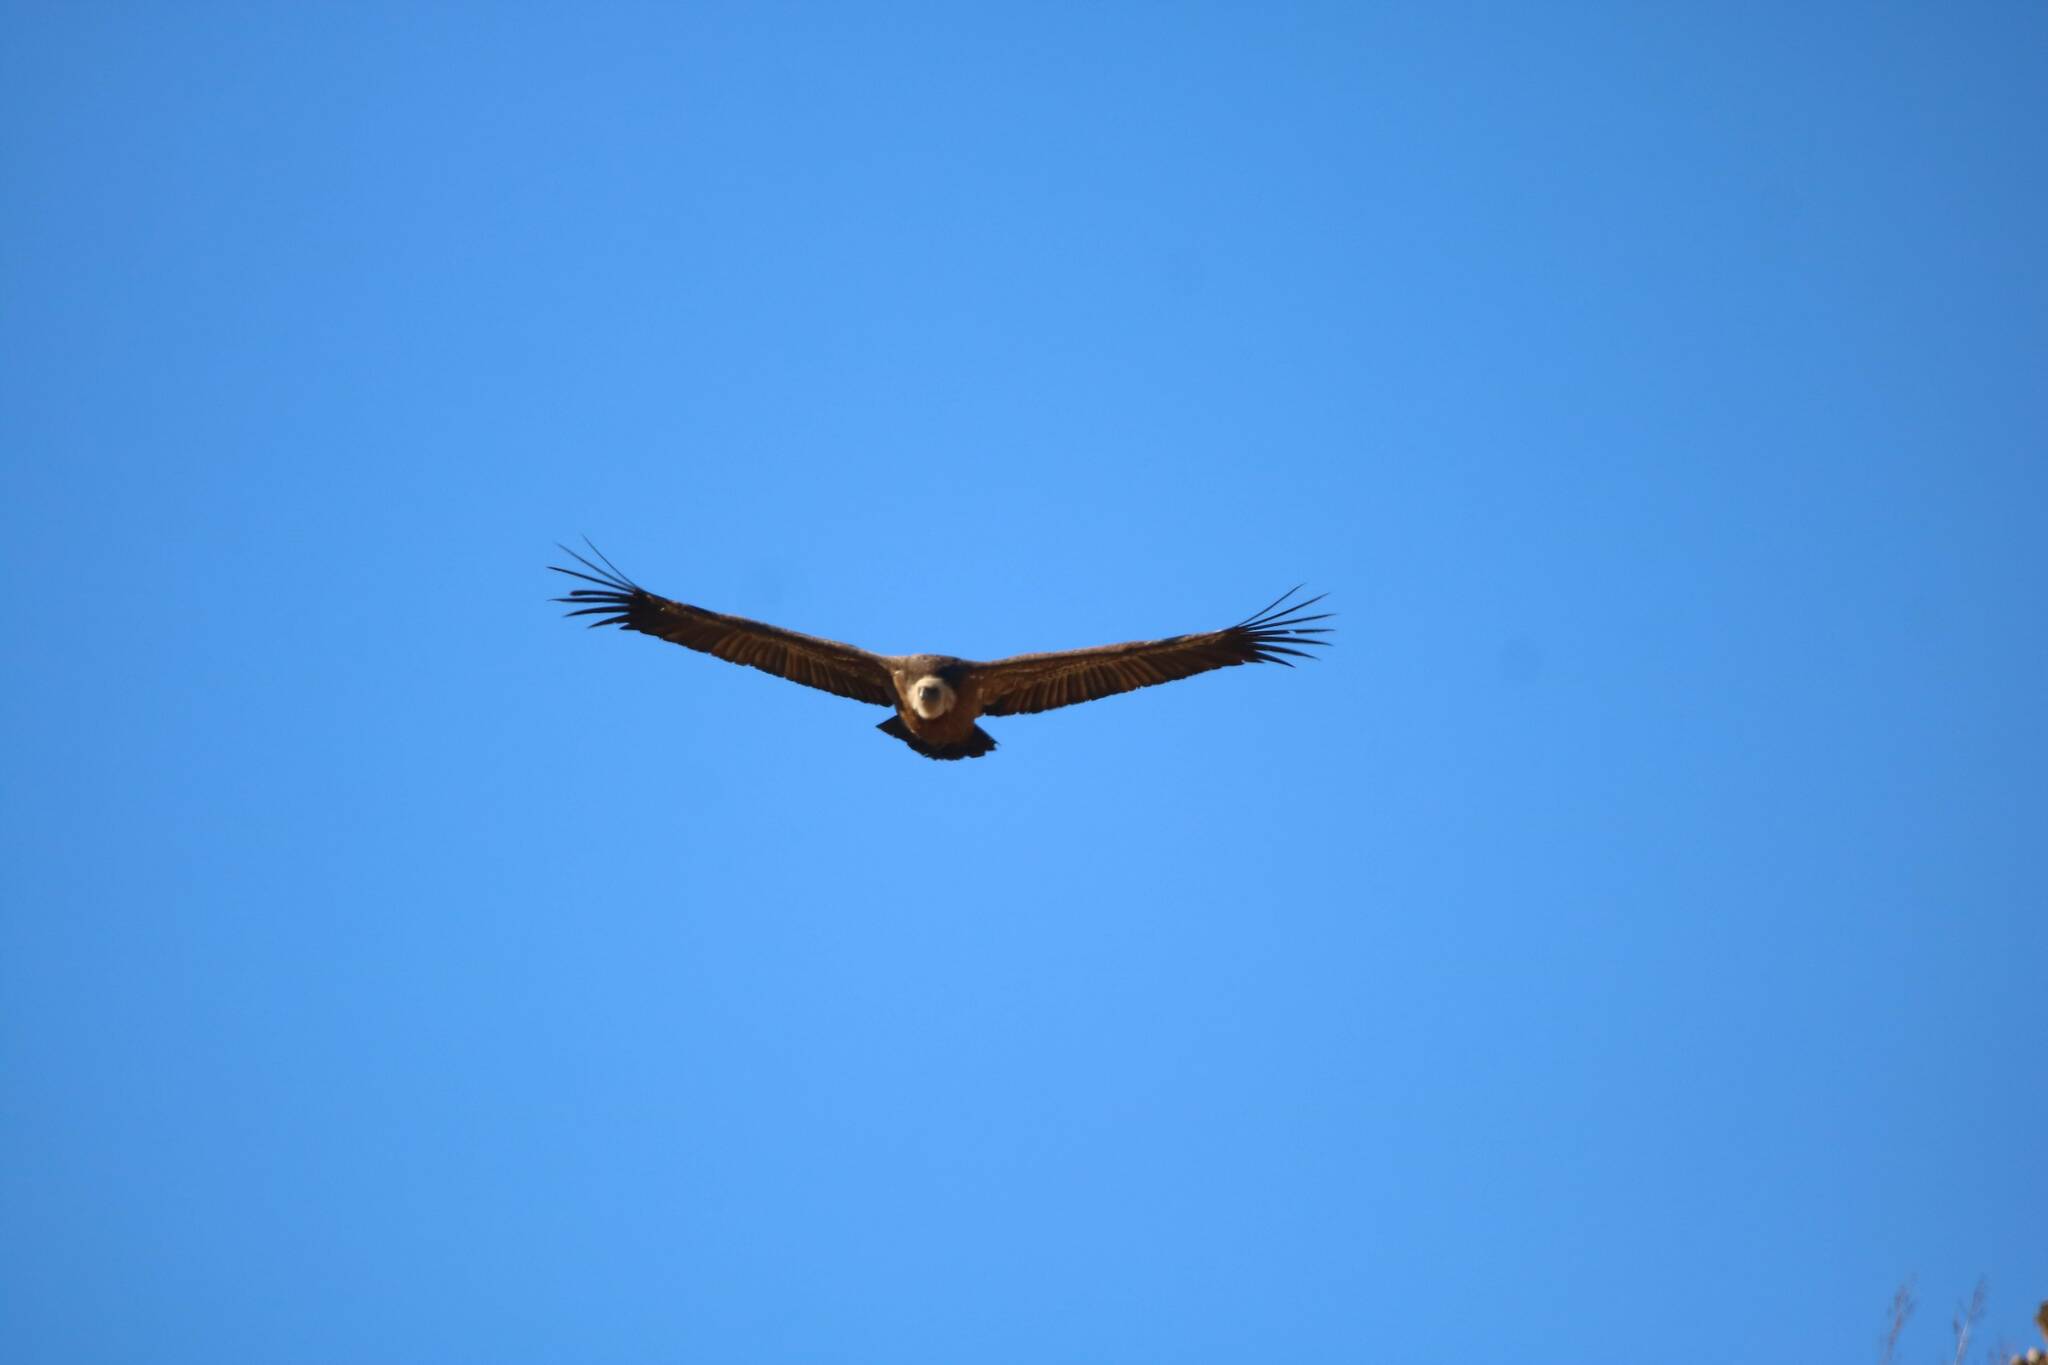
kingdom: Animalia
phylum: Chordata
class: Aves
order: Accipitriformes
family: Accipitridae
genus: Gyps
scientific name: Gyps fulvus
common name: Griffon vulture
